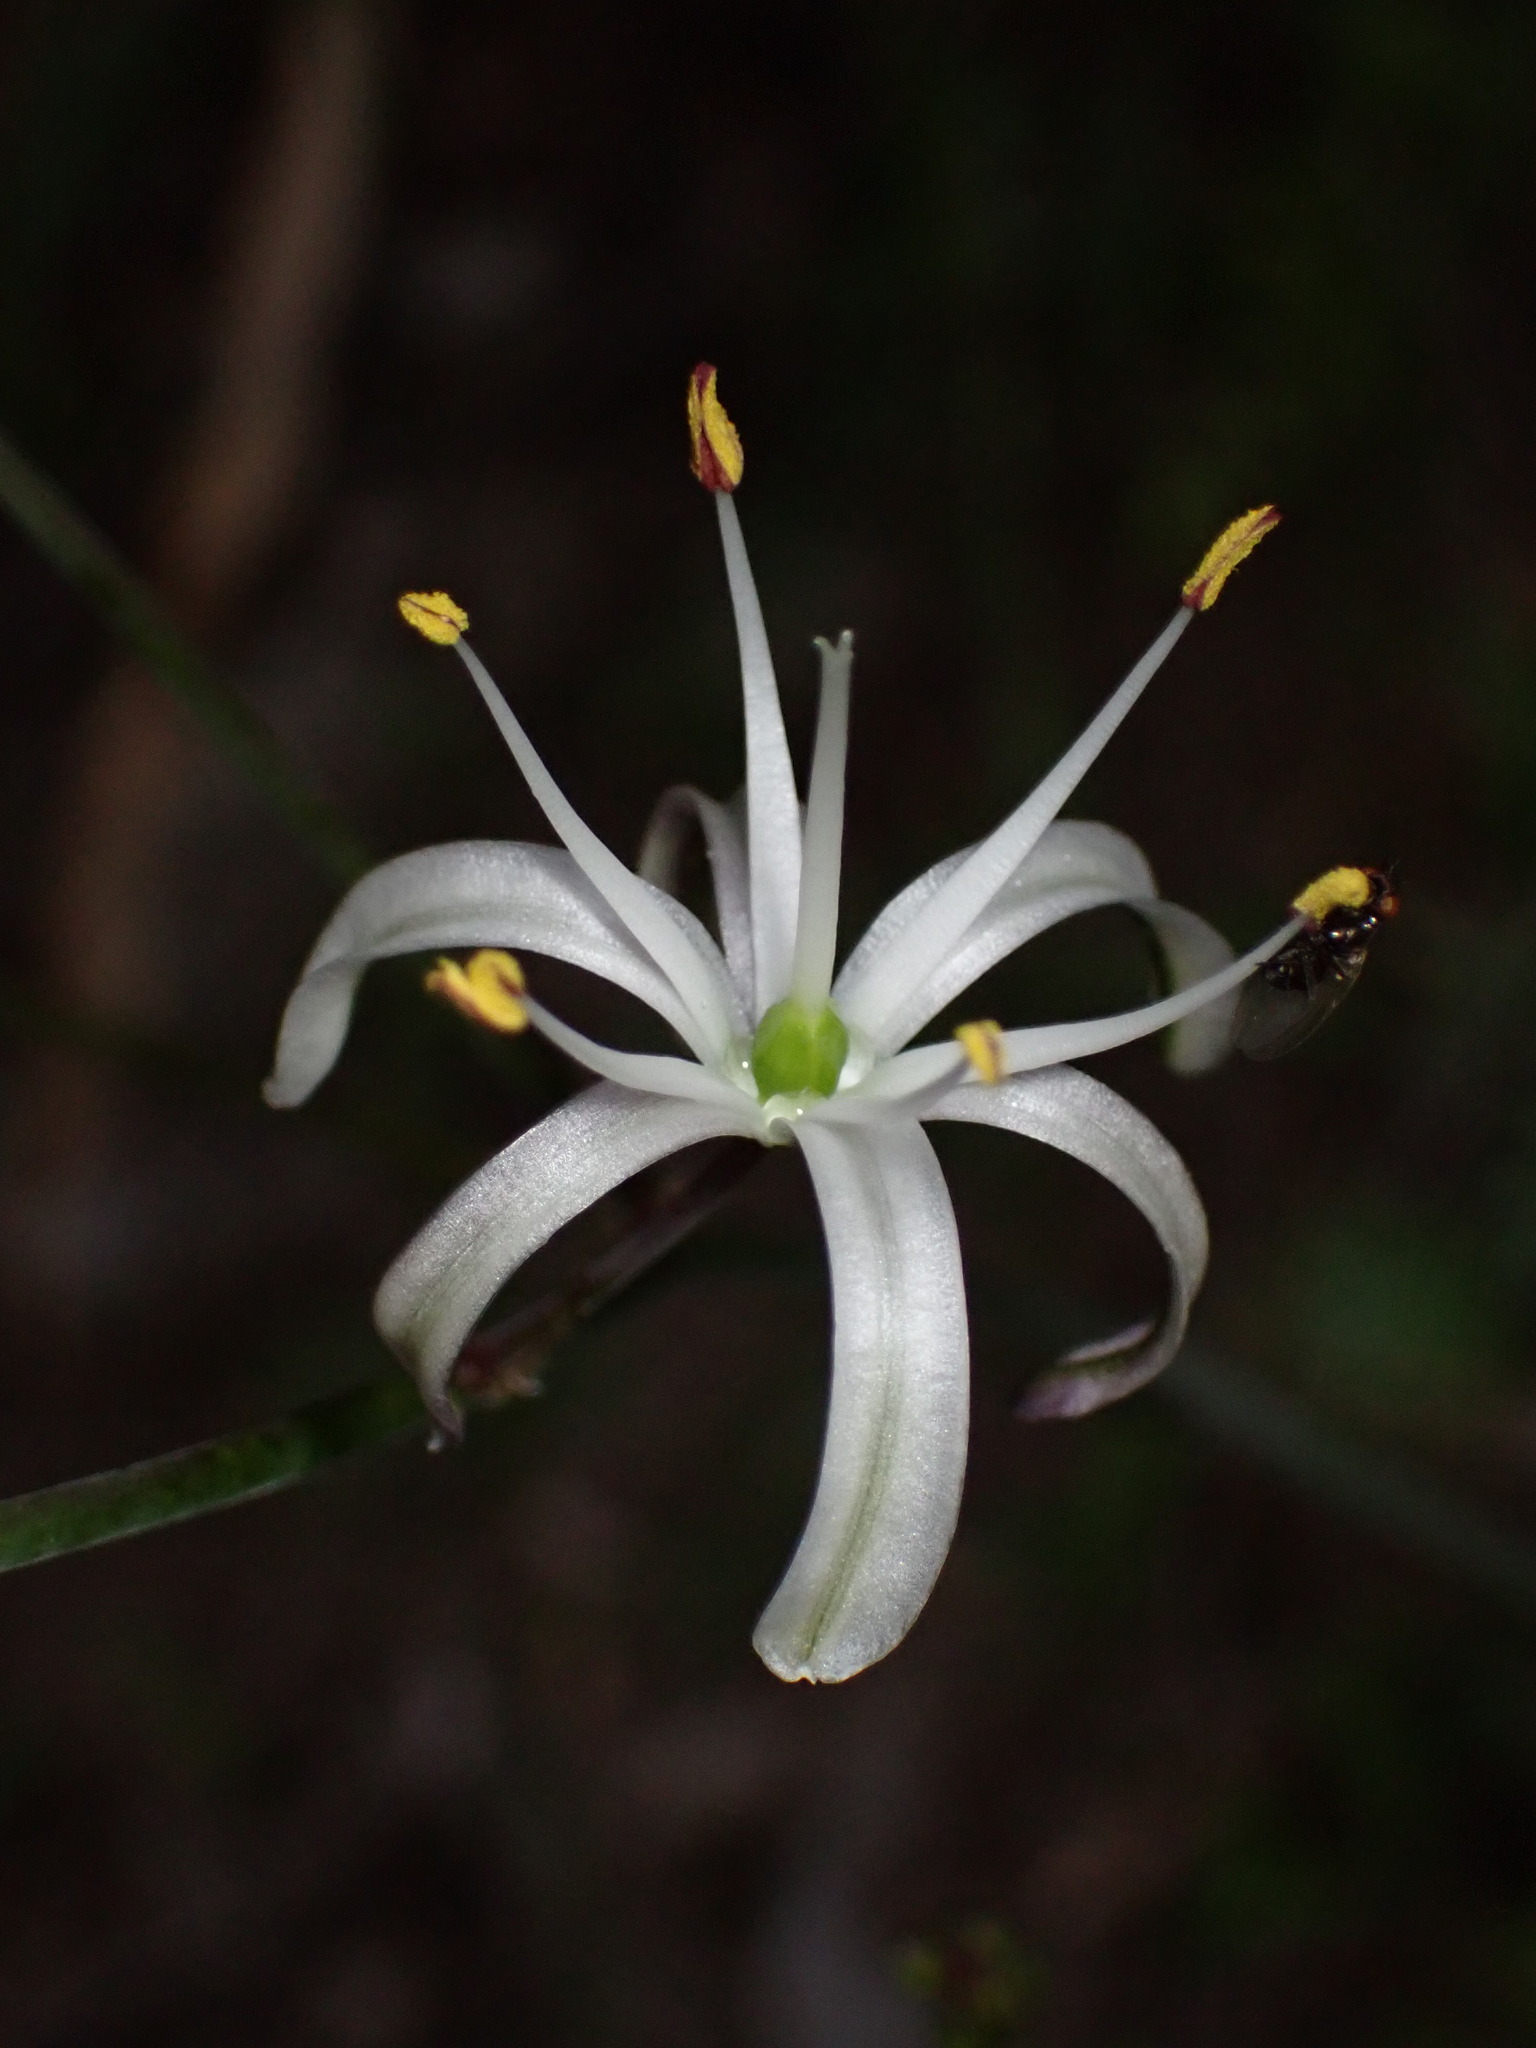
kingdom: Plantae
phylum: Tracheophyta
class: Liliopsida
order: Asparagales
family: Asparagaceae
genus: Chlorogalum
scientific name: Chlorogalum pomeridianum
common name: Amole
